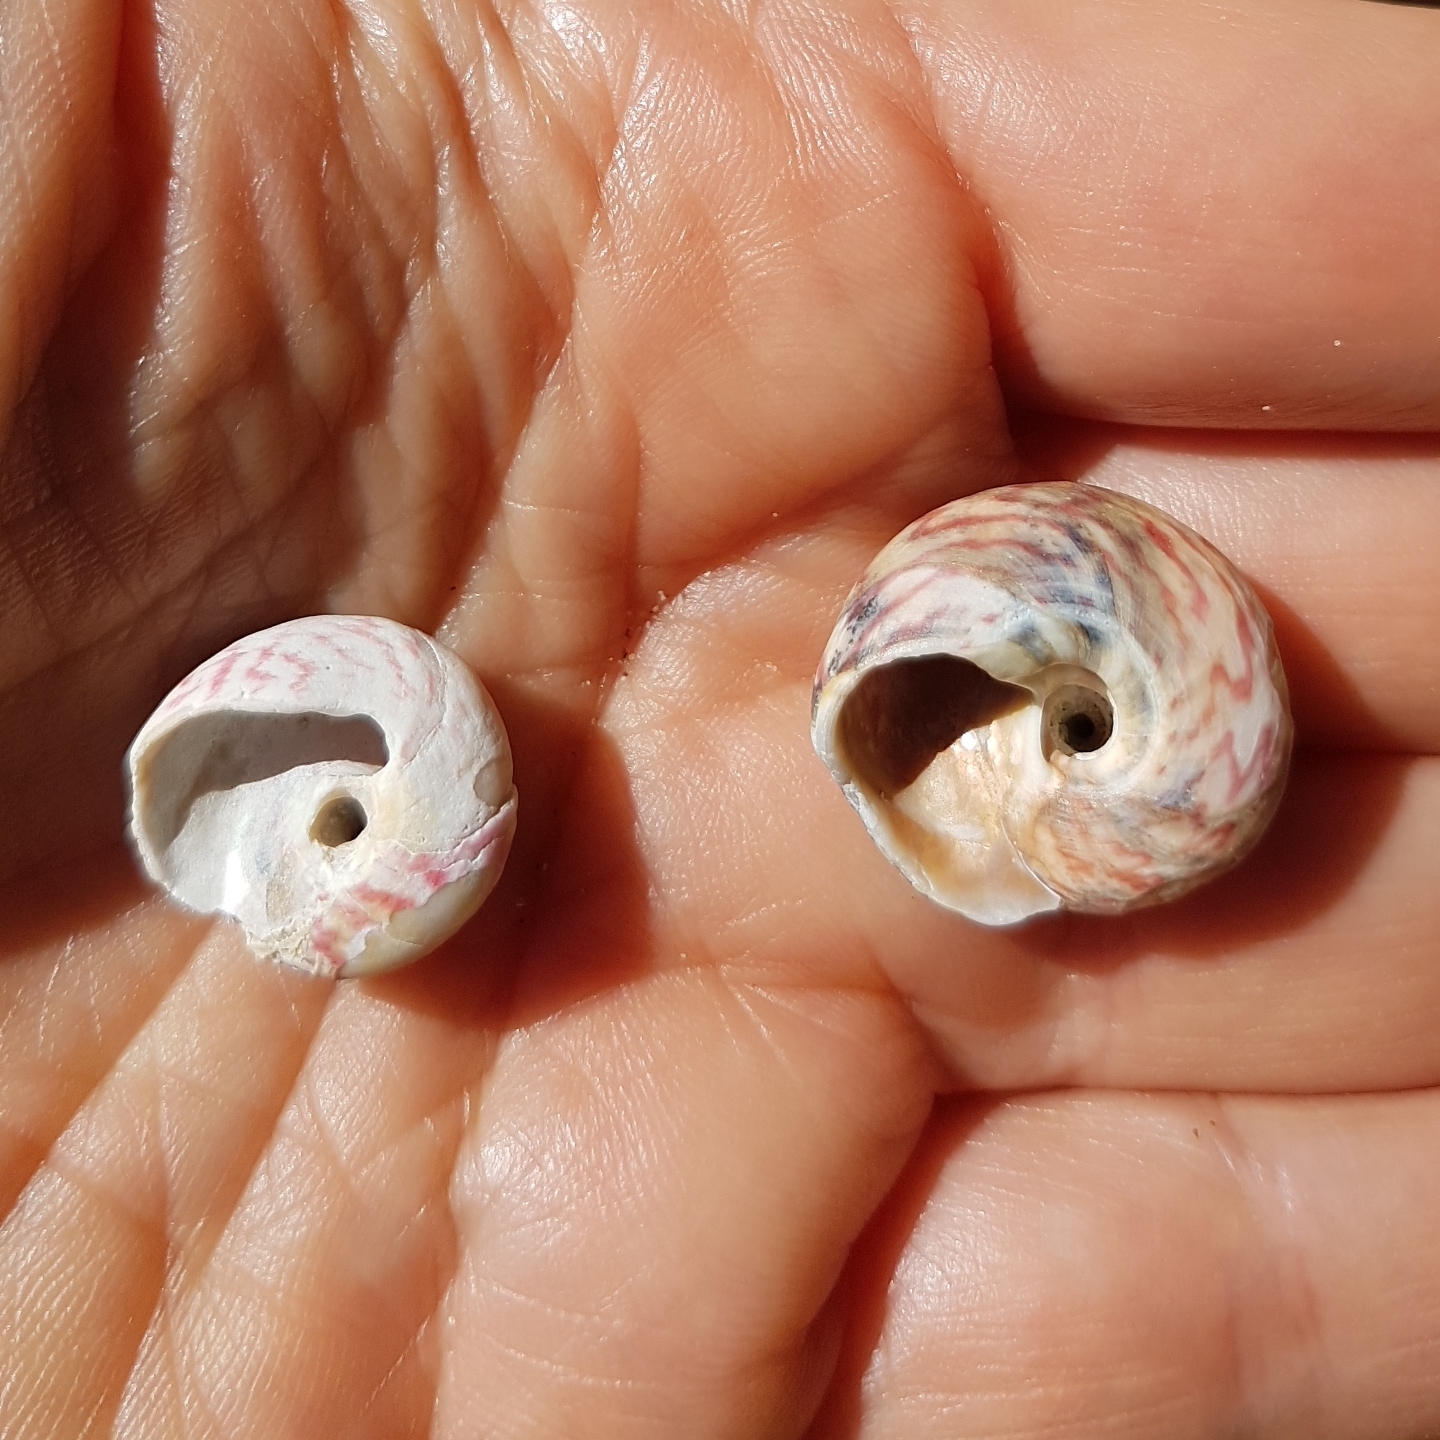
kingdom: Animalia
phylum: Mollusca
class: Gastropoda
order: Trochida
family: Trochidae
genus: Gibbula
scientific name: Gibbula magus
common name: Turban top shell
